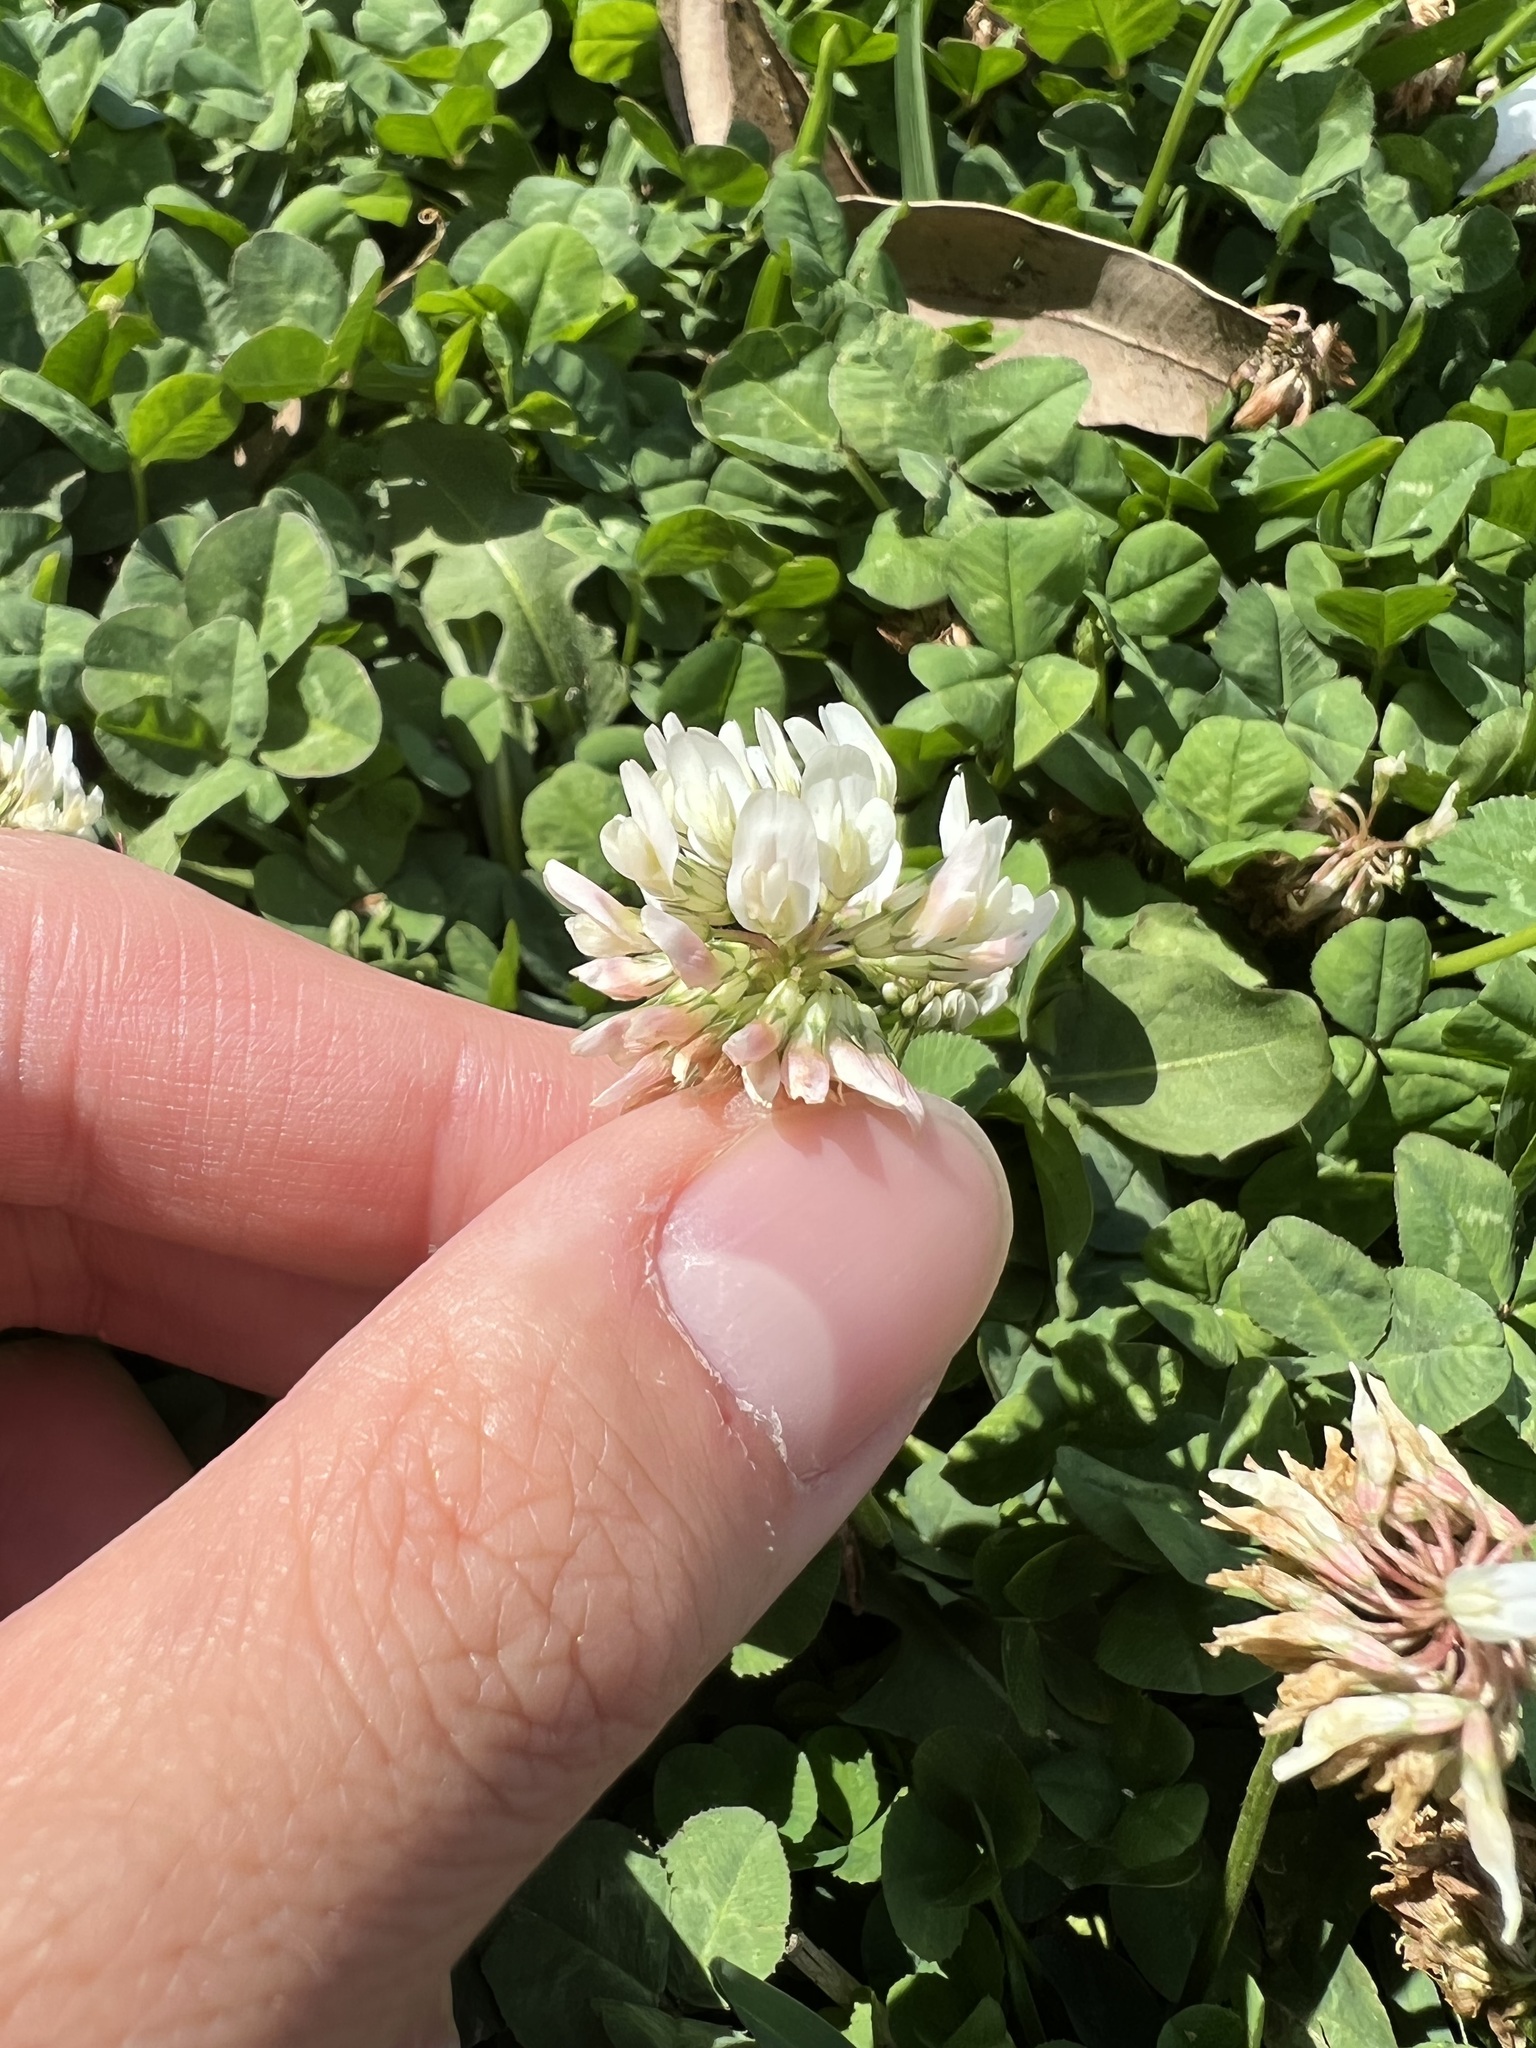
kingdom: Plantae
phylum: Tracheophyta
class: Magnoliopsida
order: Fabales
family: Fabaceae
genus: Trifolium
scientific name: Trifolium repens
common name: White clover
